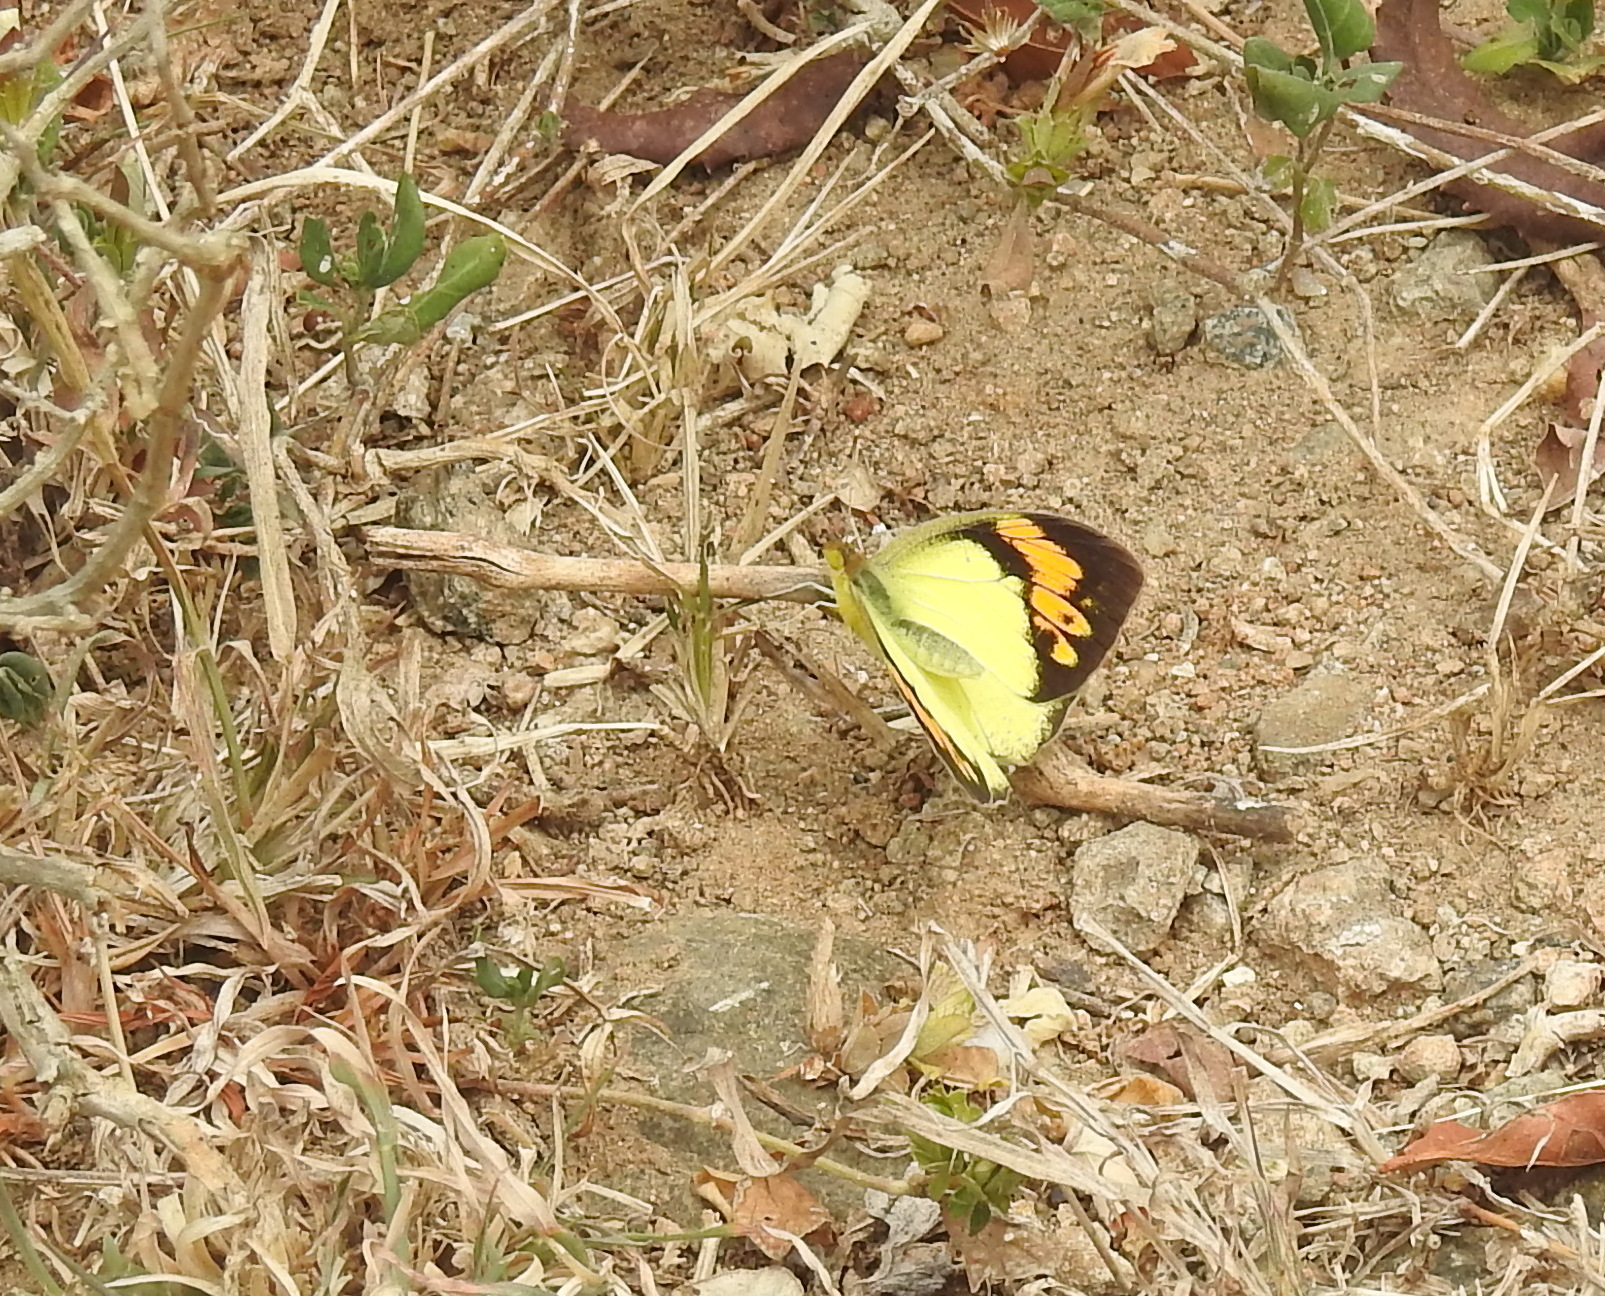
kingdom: Animalia
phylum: Arthropoda
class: Insecta
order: Lepidoptera
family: Pieridae
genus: Ixias
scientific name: Ixias pyrene
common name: Yellow orange tip
